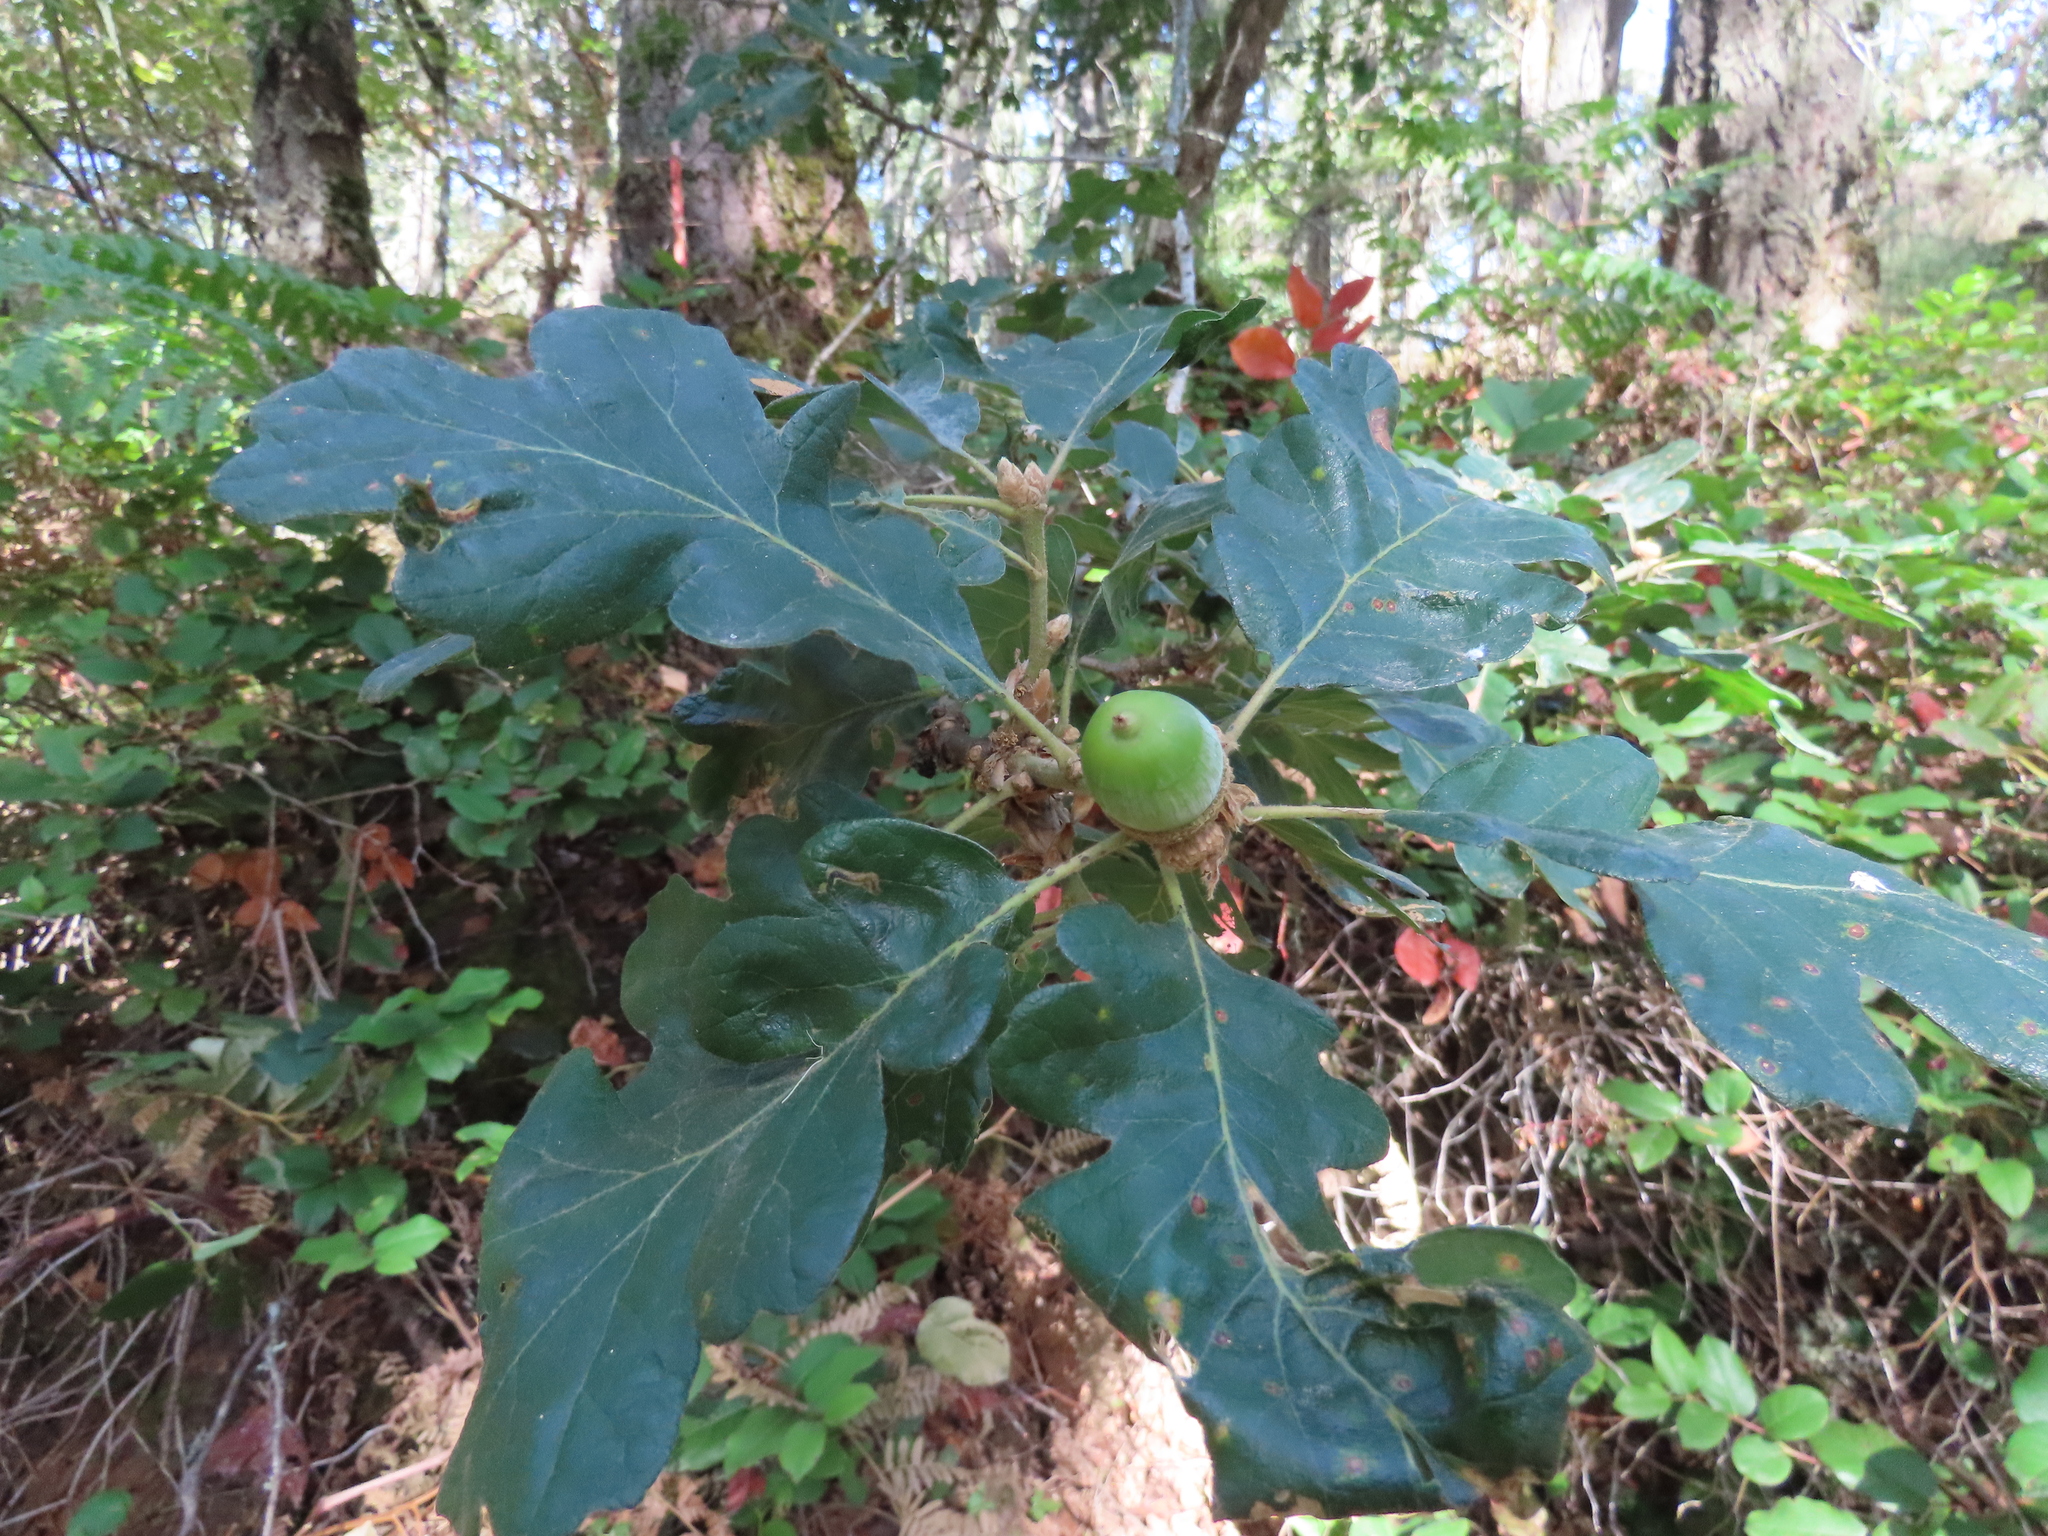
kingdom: Plantae
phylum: Tracheophyta
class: Magnoliopsida
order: Fagales
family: Fagaceae
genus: Quercus
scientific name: Quercus garryana
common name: Garry oak
